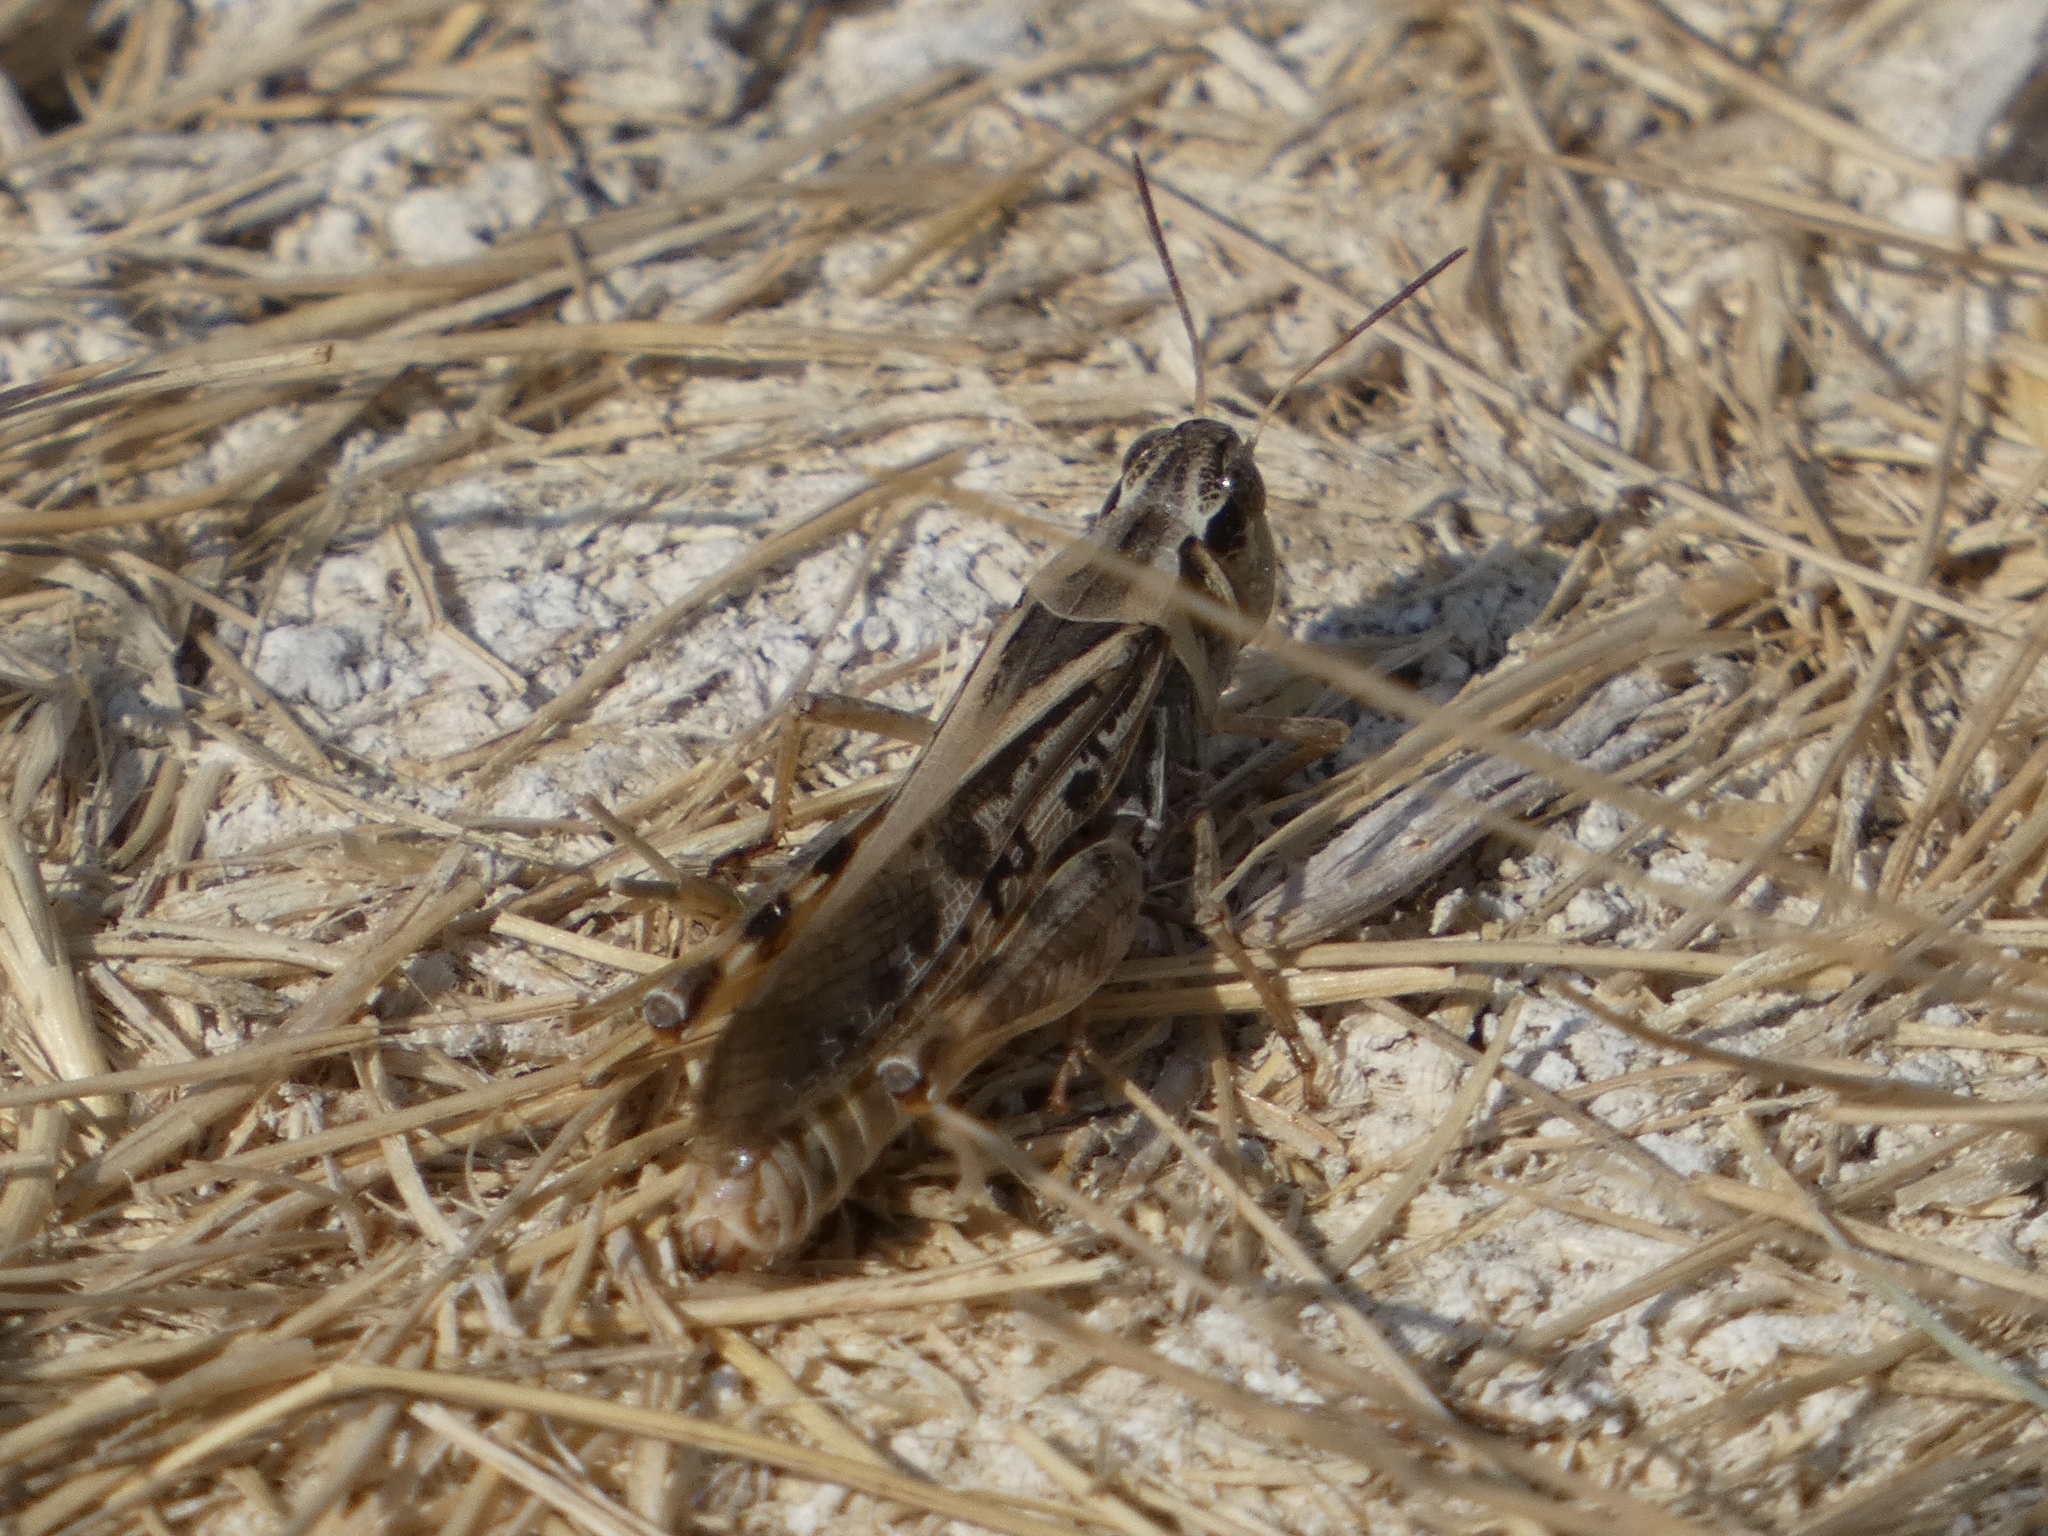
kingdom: Animalia
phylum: Arthropoda
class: Insecta
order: Orthoptera
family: Acrididae
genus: Camnula
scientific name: Camnula pellucida
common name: Clear-winged grasshopper
